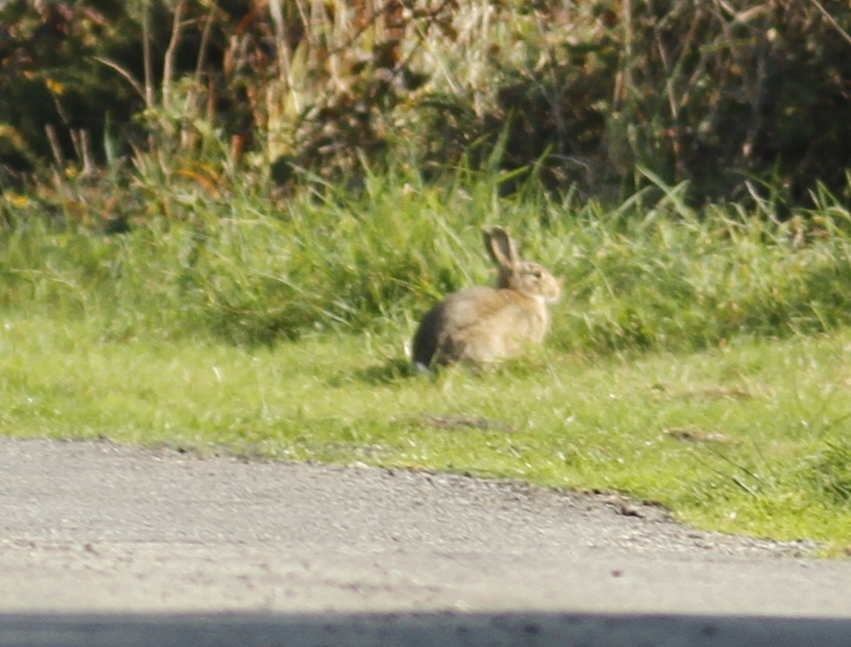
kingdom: Animalia
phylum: Chordata
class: Mammalia
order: Lagomorpha
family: Leporidae
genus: Oryctolagus
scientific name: Oryctolagus cuniculus
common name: European rabbit
